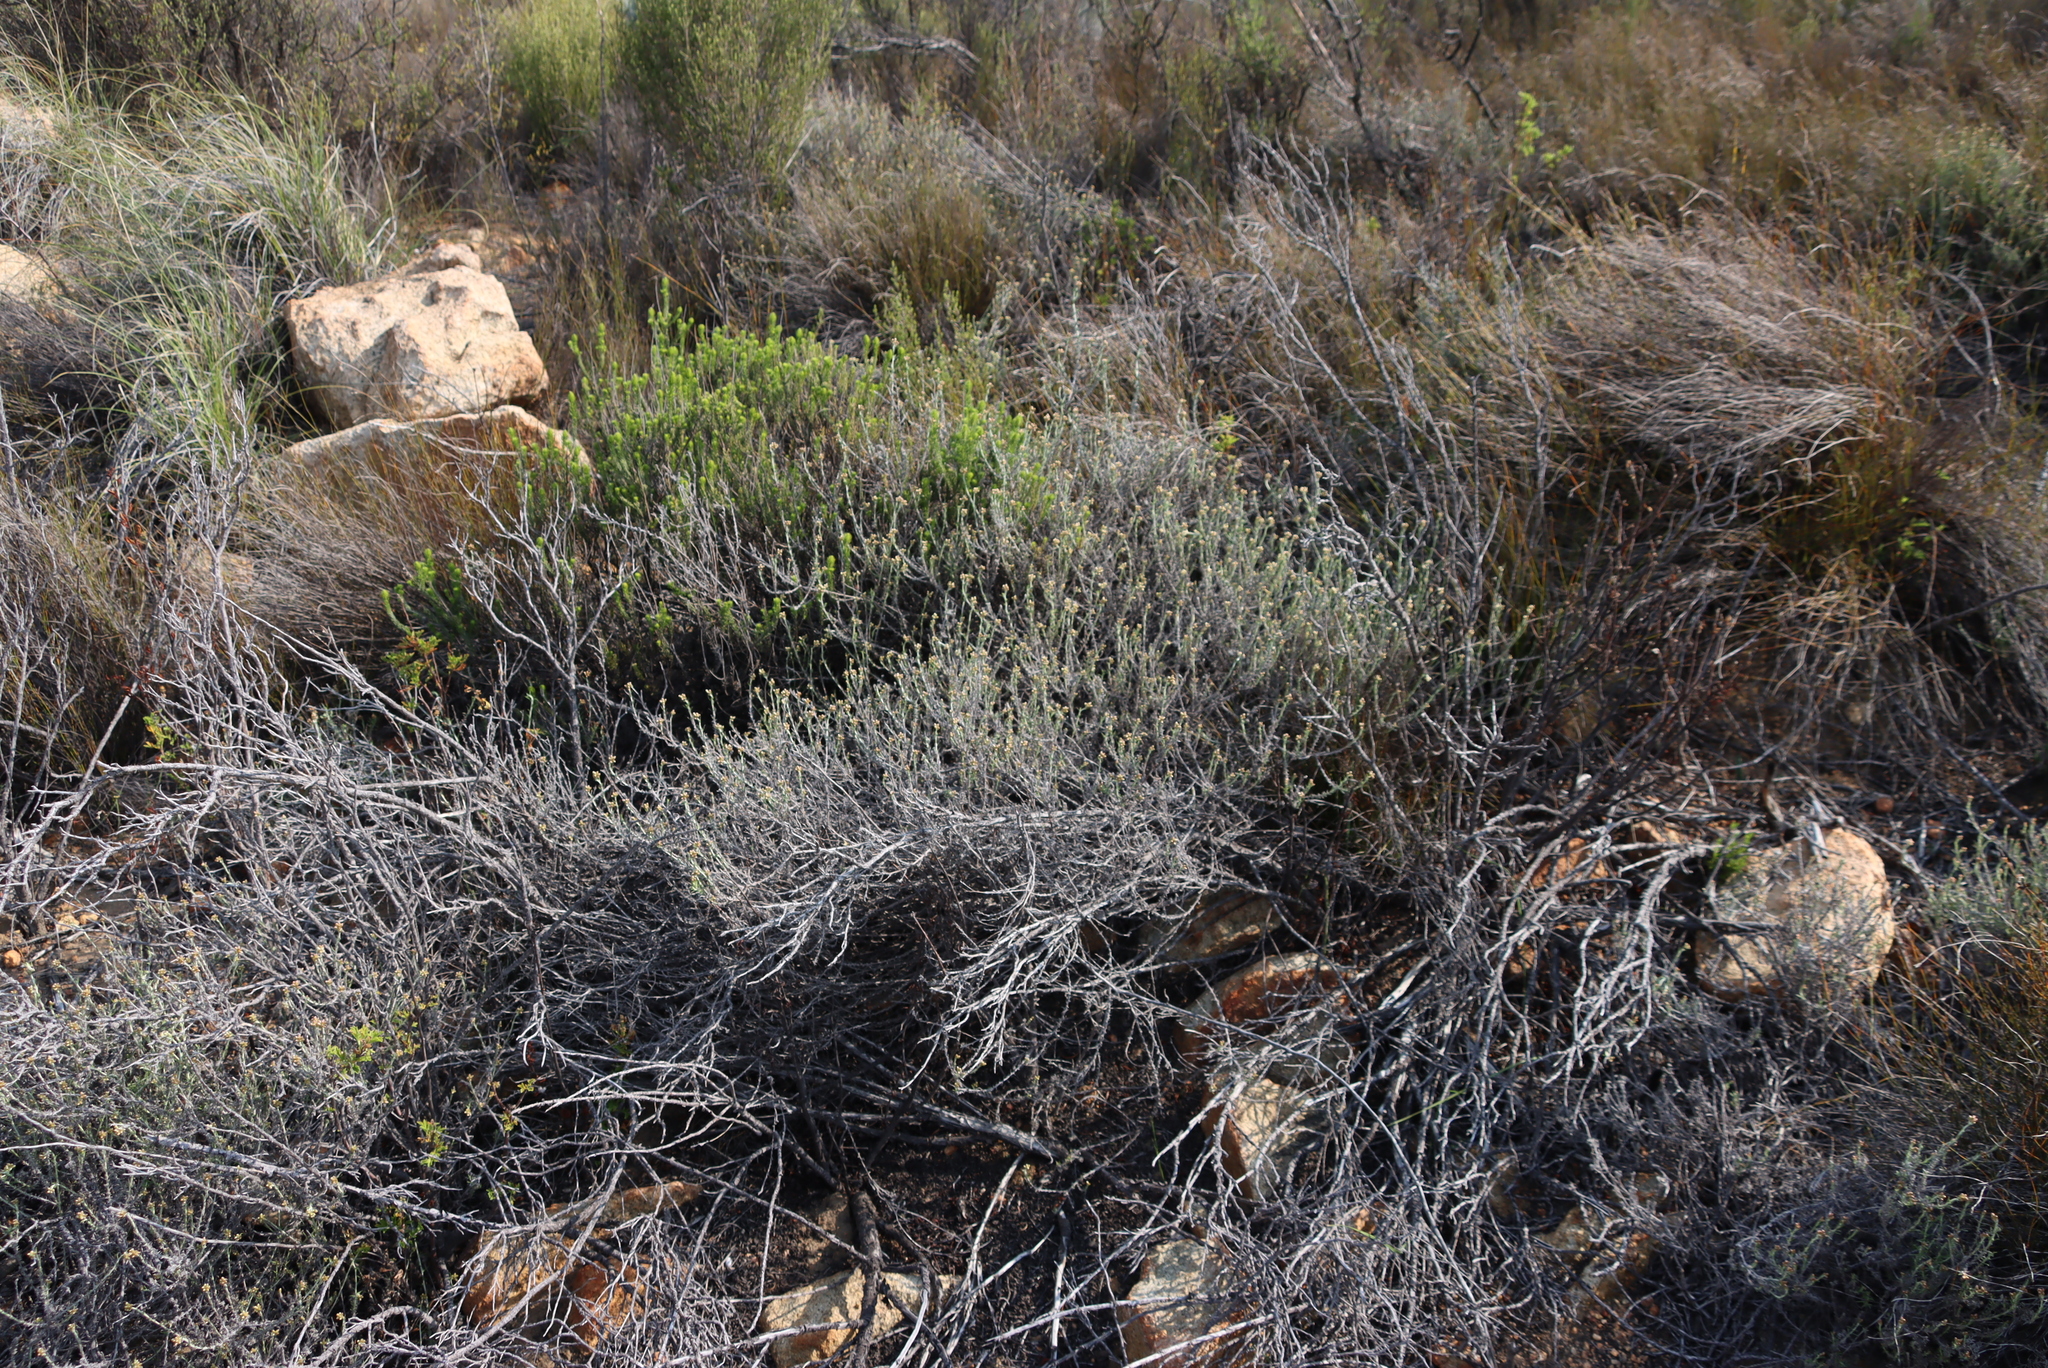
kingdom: Plantae
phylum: Tracheophyta
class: Magnoliopsida
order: Asterales
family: Asteraceae
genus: Helichrysum
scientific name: Helichrysum pulchellum
